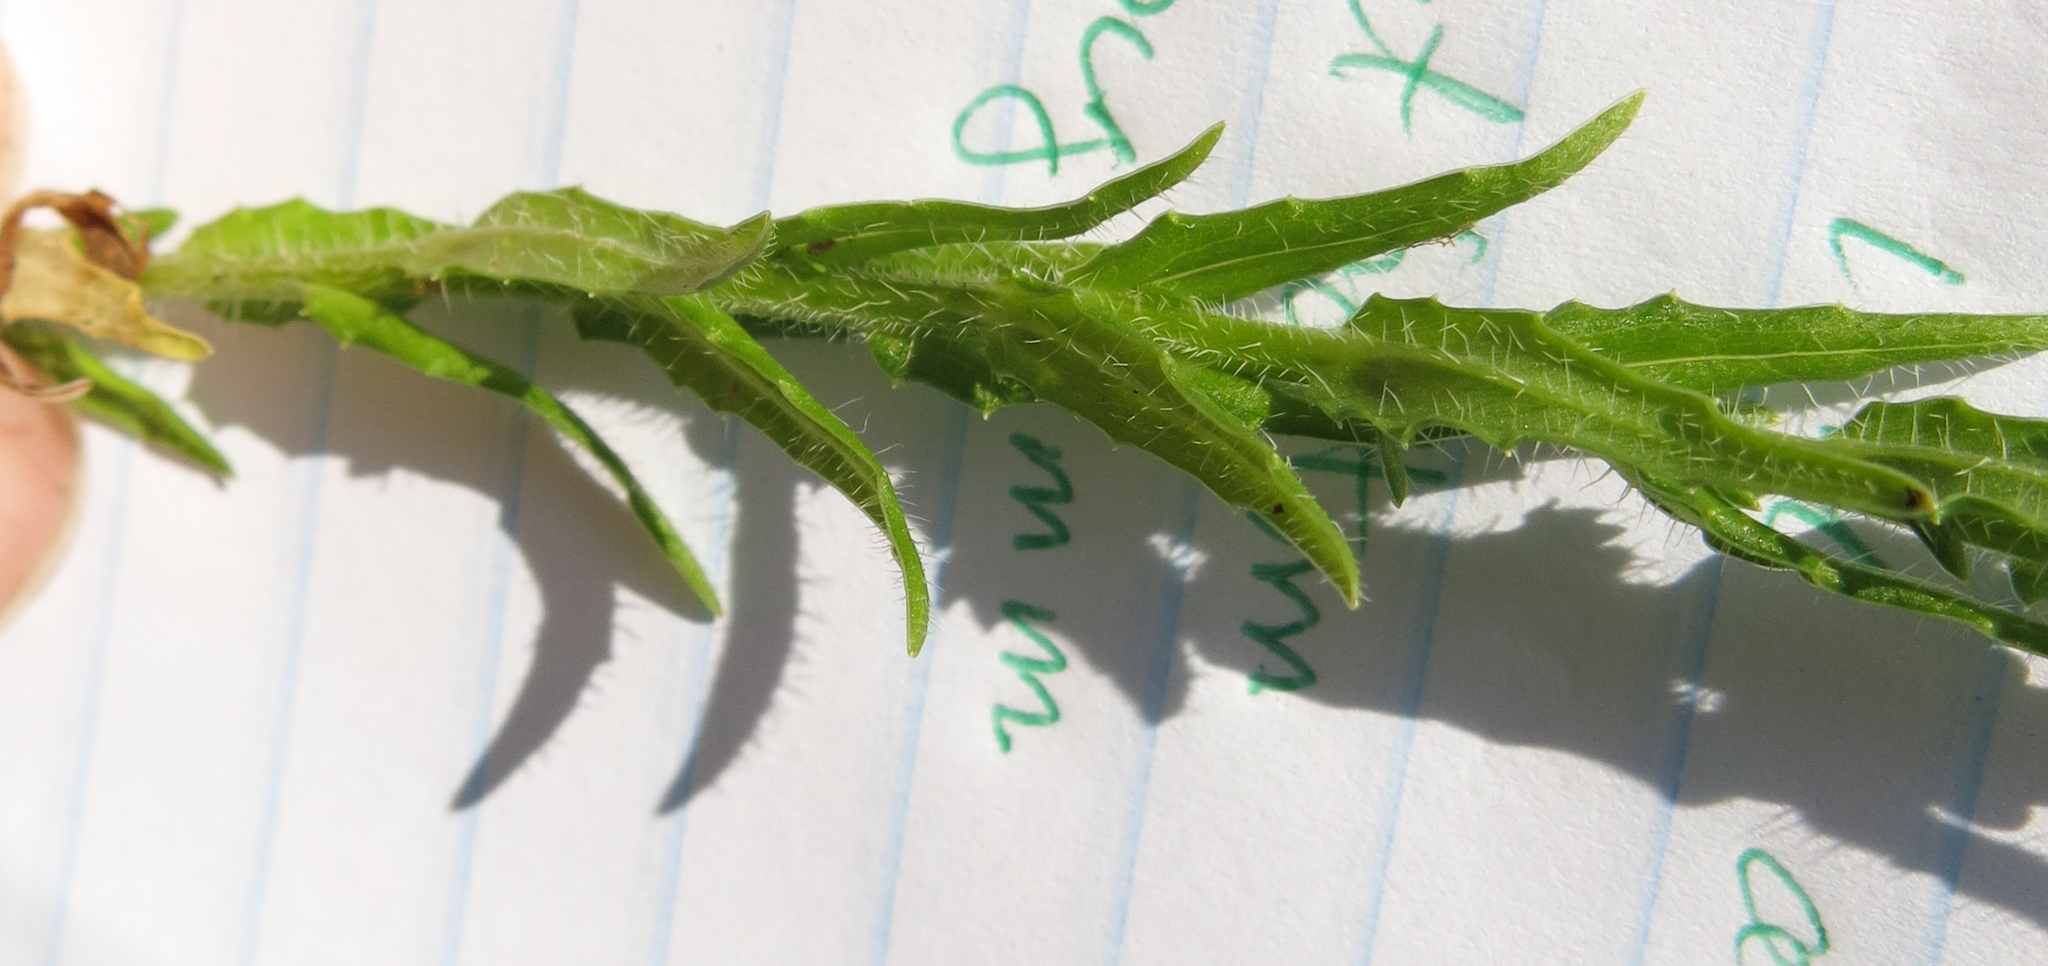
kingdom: Plantae
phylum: Tracheophyta
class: Magnoliopsida
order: Asterales
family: Campanulaceae
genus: Wahlenbergia
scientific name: Wahlenbergia cuspidata
